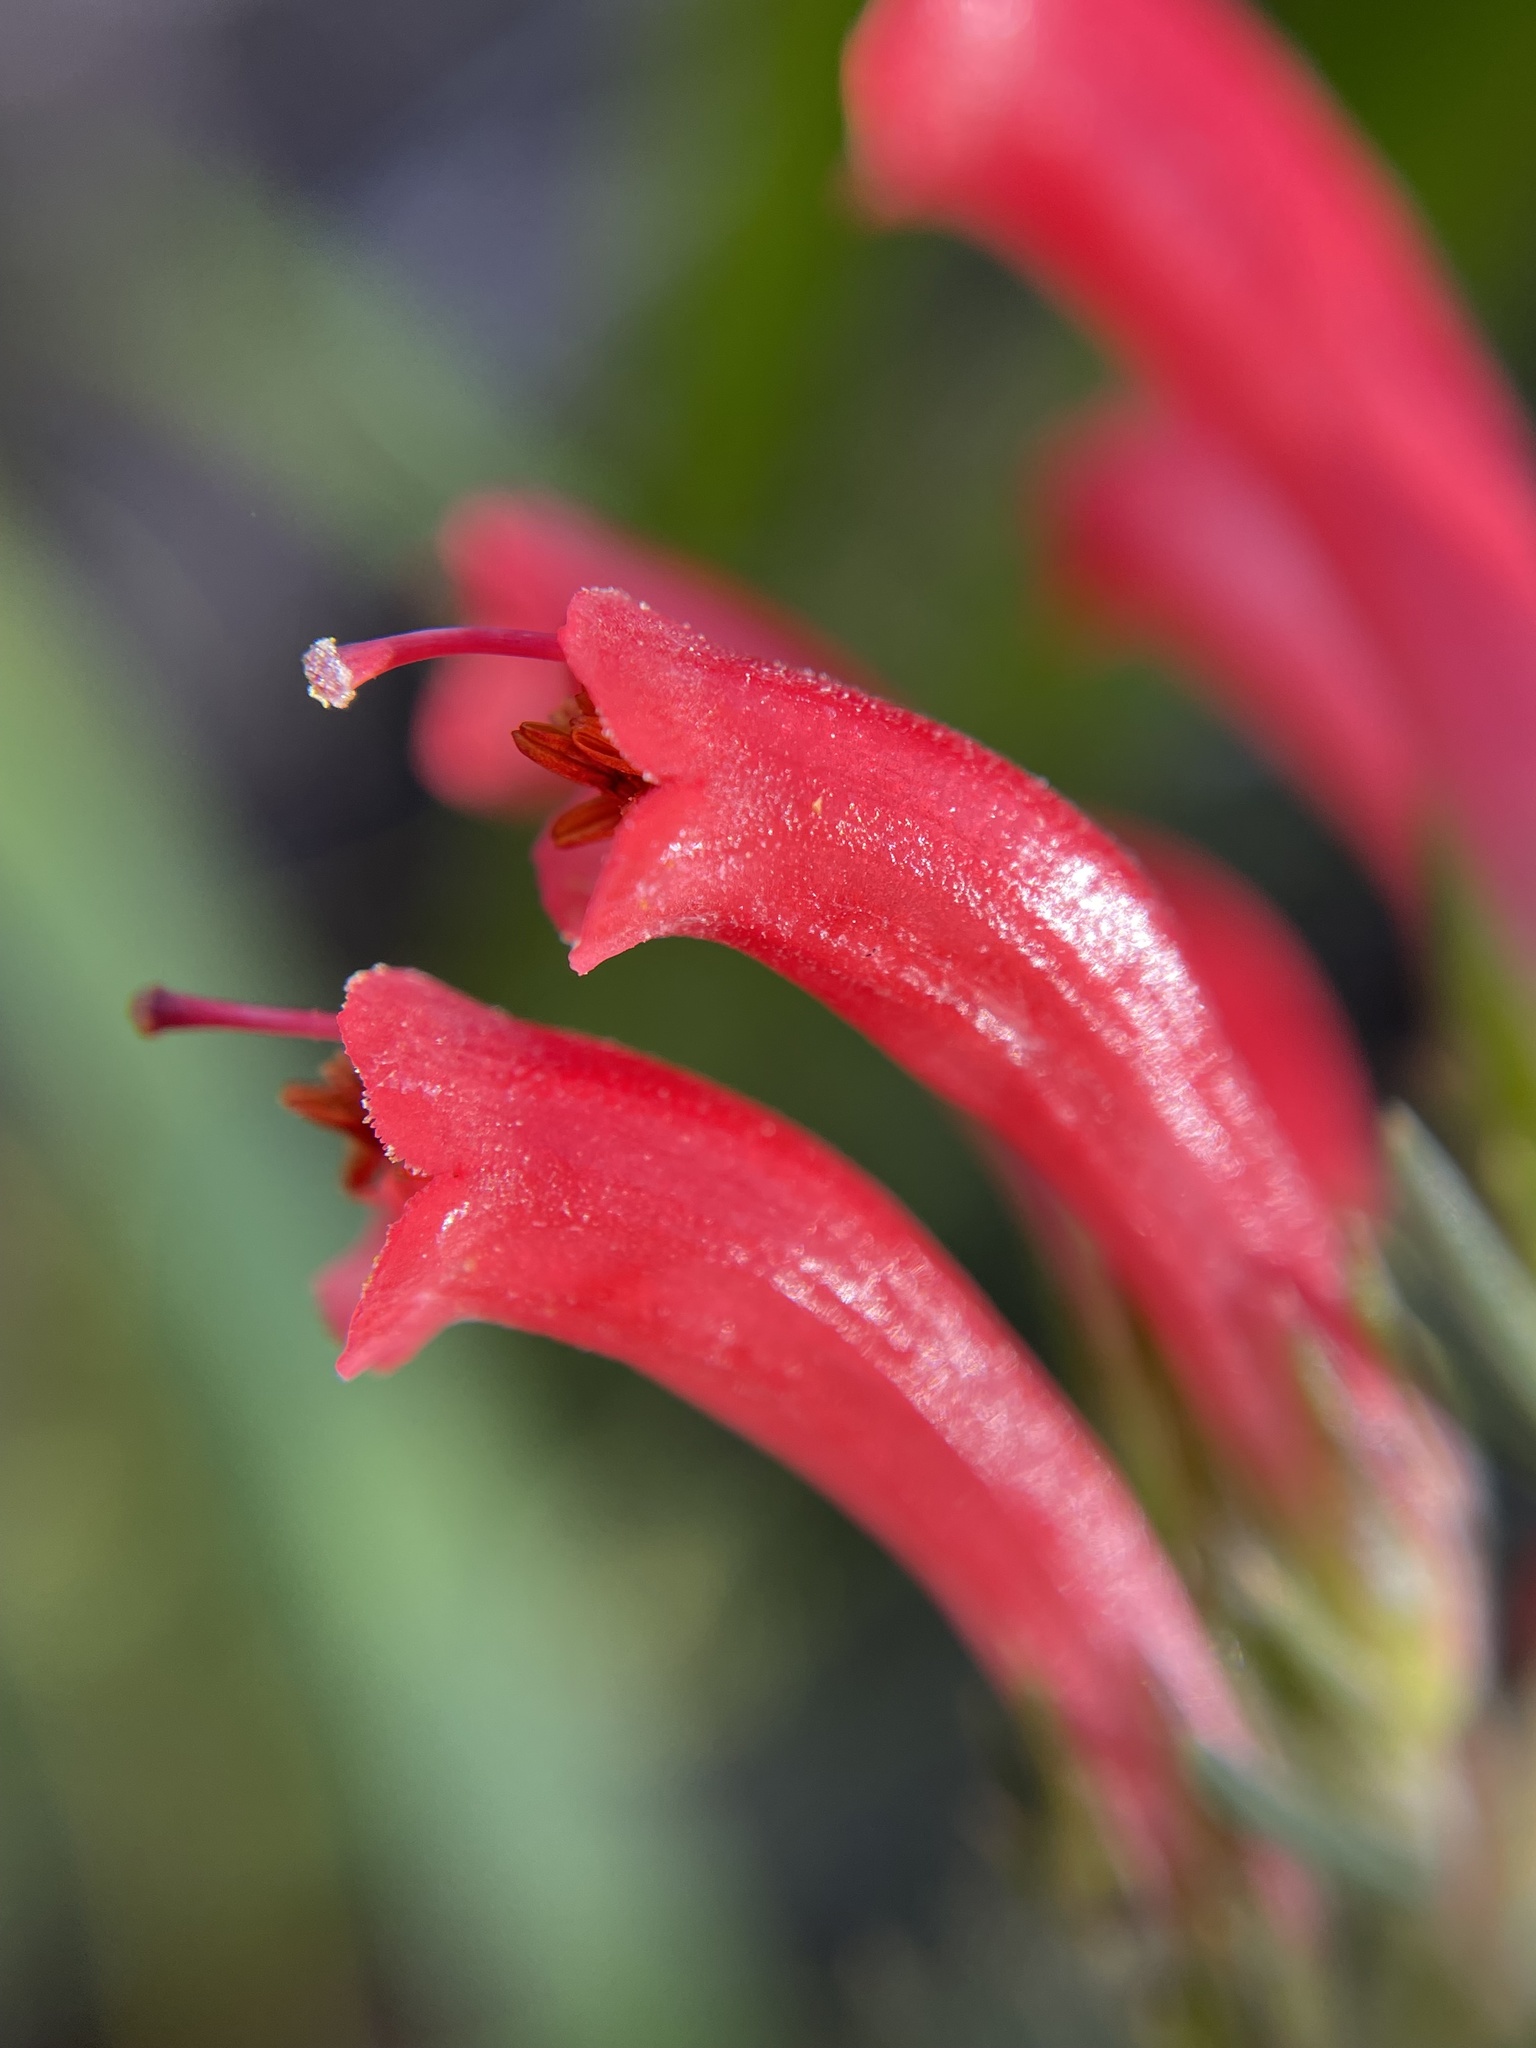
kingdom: Plantae
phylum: Tracheophyta
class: Magnoliopsida
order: Ericales
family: Ericaceae
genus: Erica
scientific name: Erica abietina
